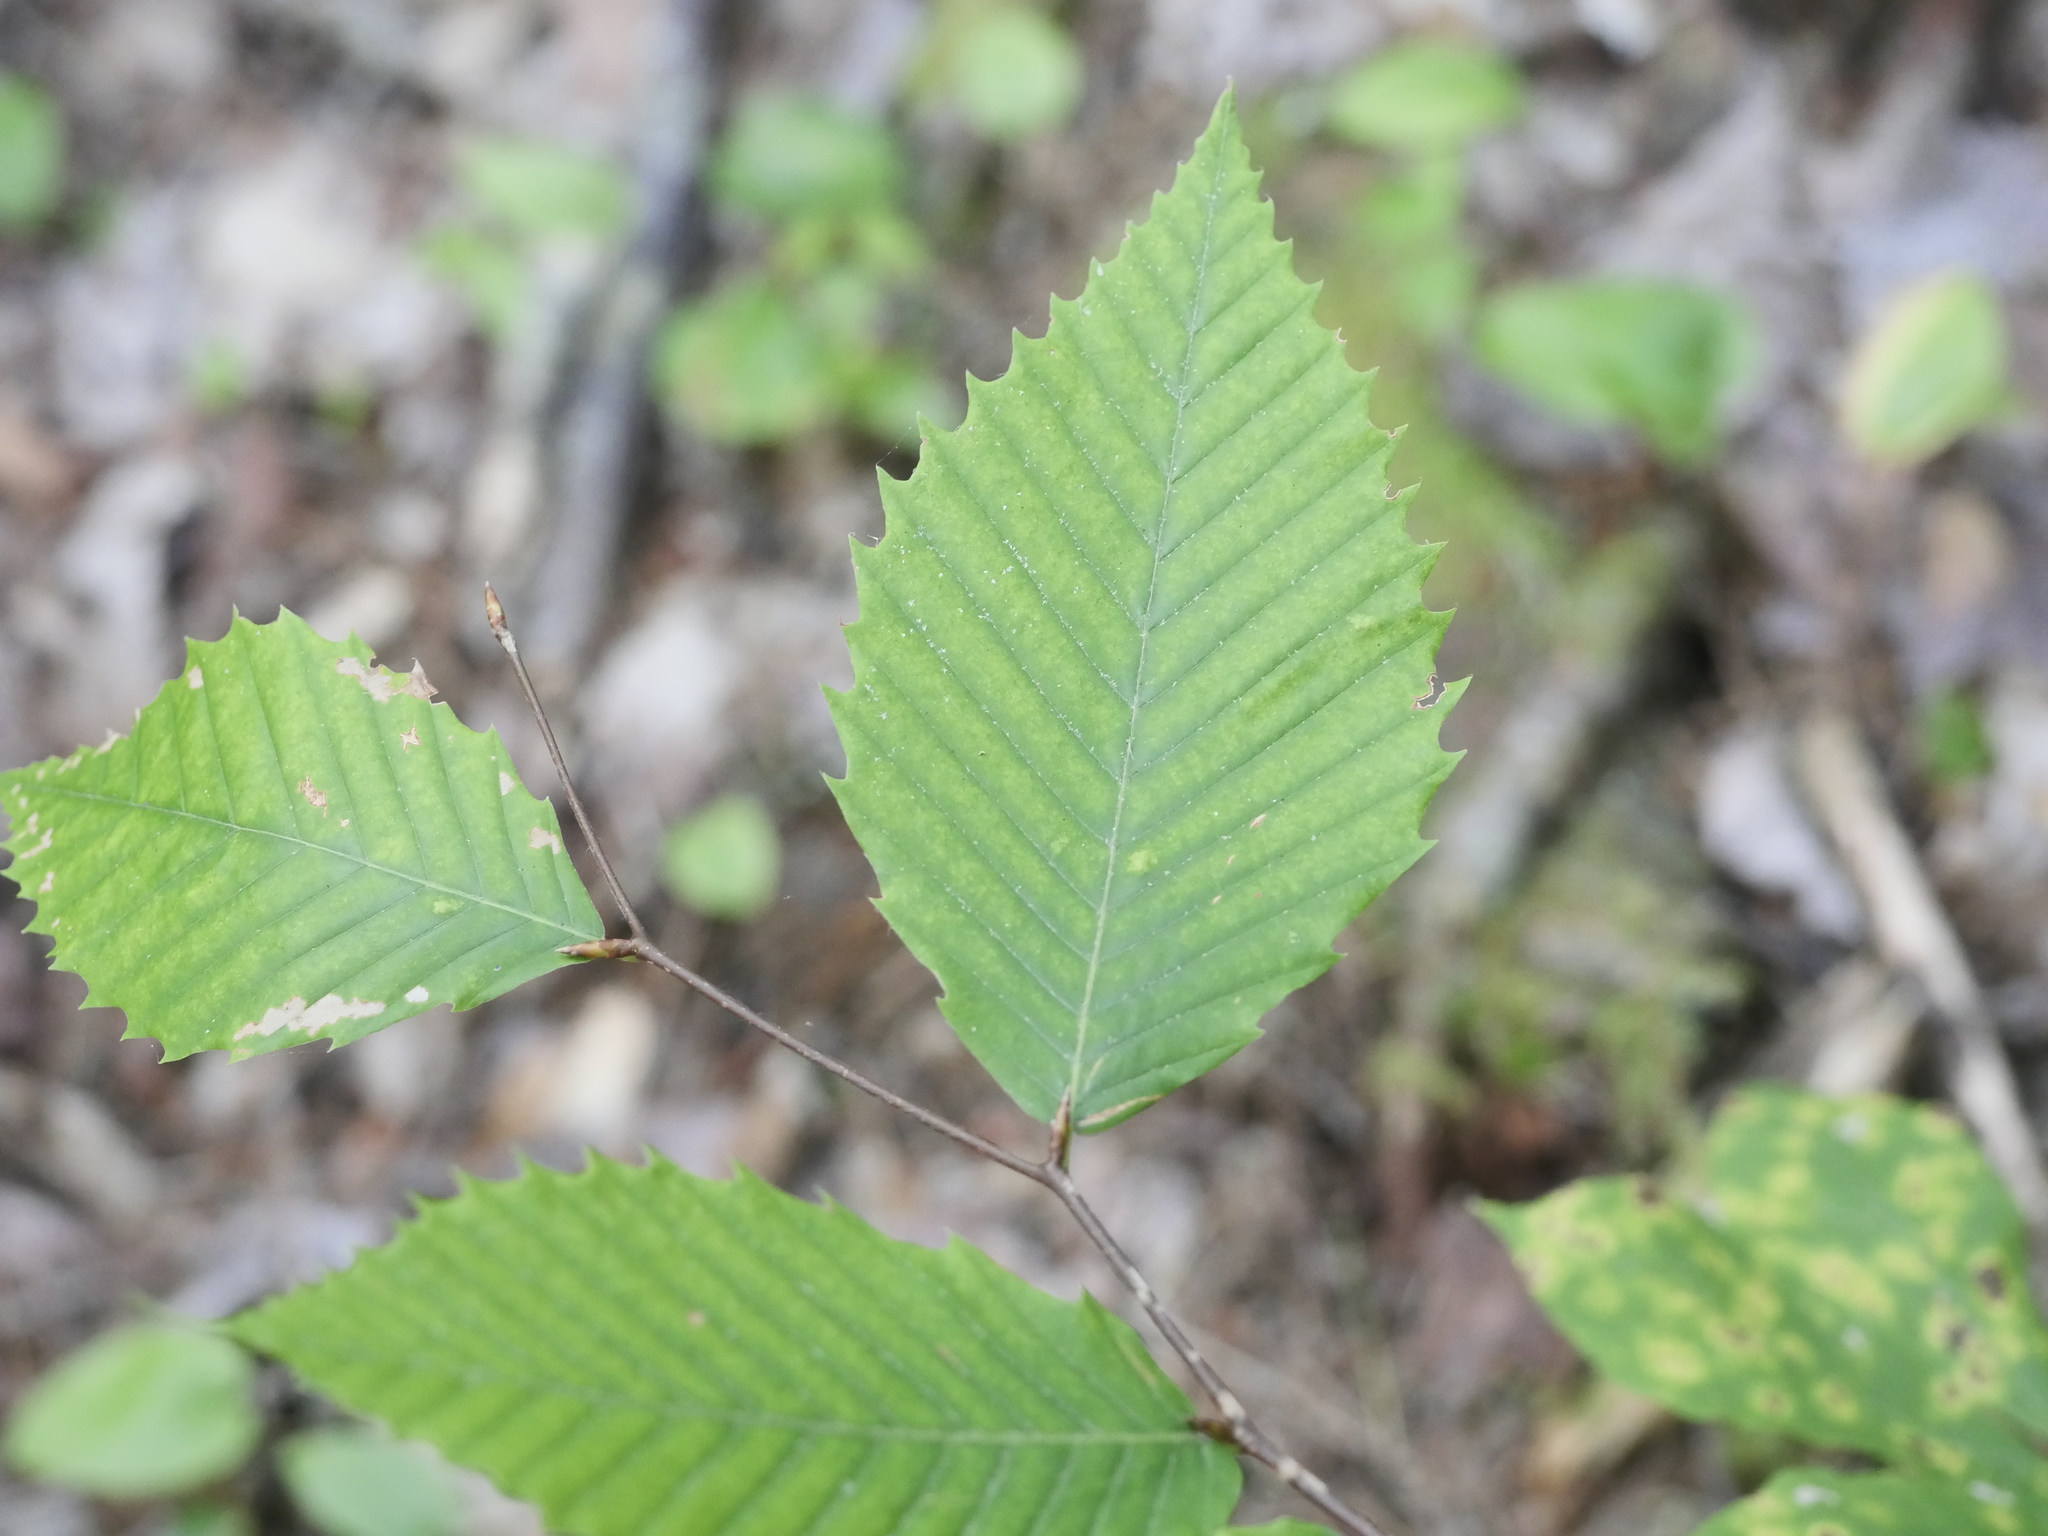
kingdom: Plantae
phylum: Tracheophyta
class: Magnoliopsida
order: Fagales
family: Fagaceae
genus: Fagus
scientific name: Fagus grandifolia
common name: American beech
